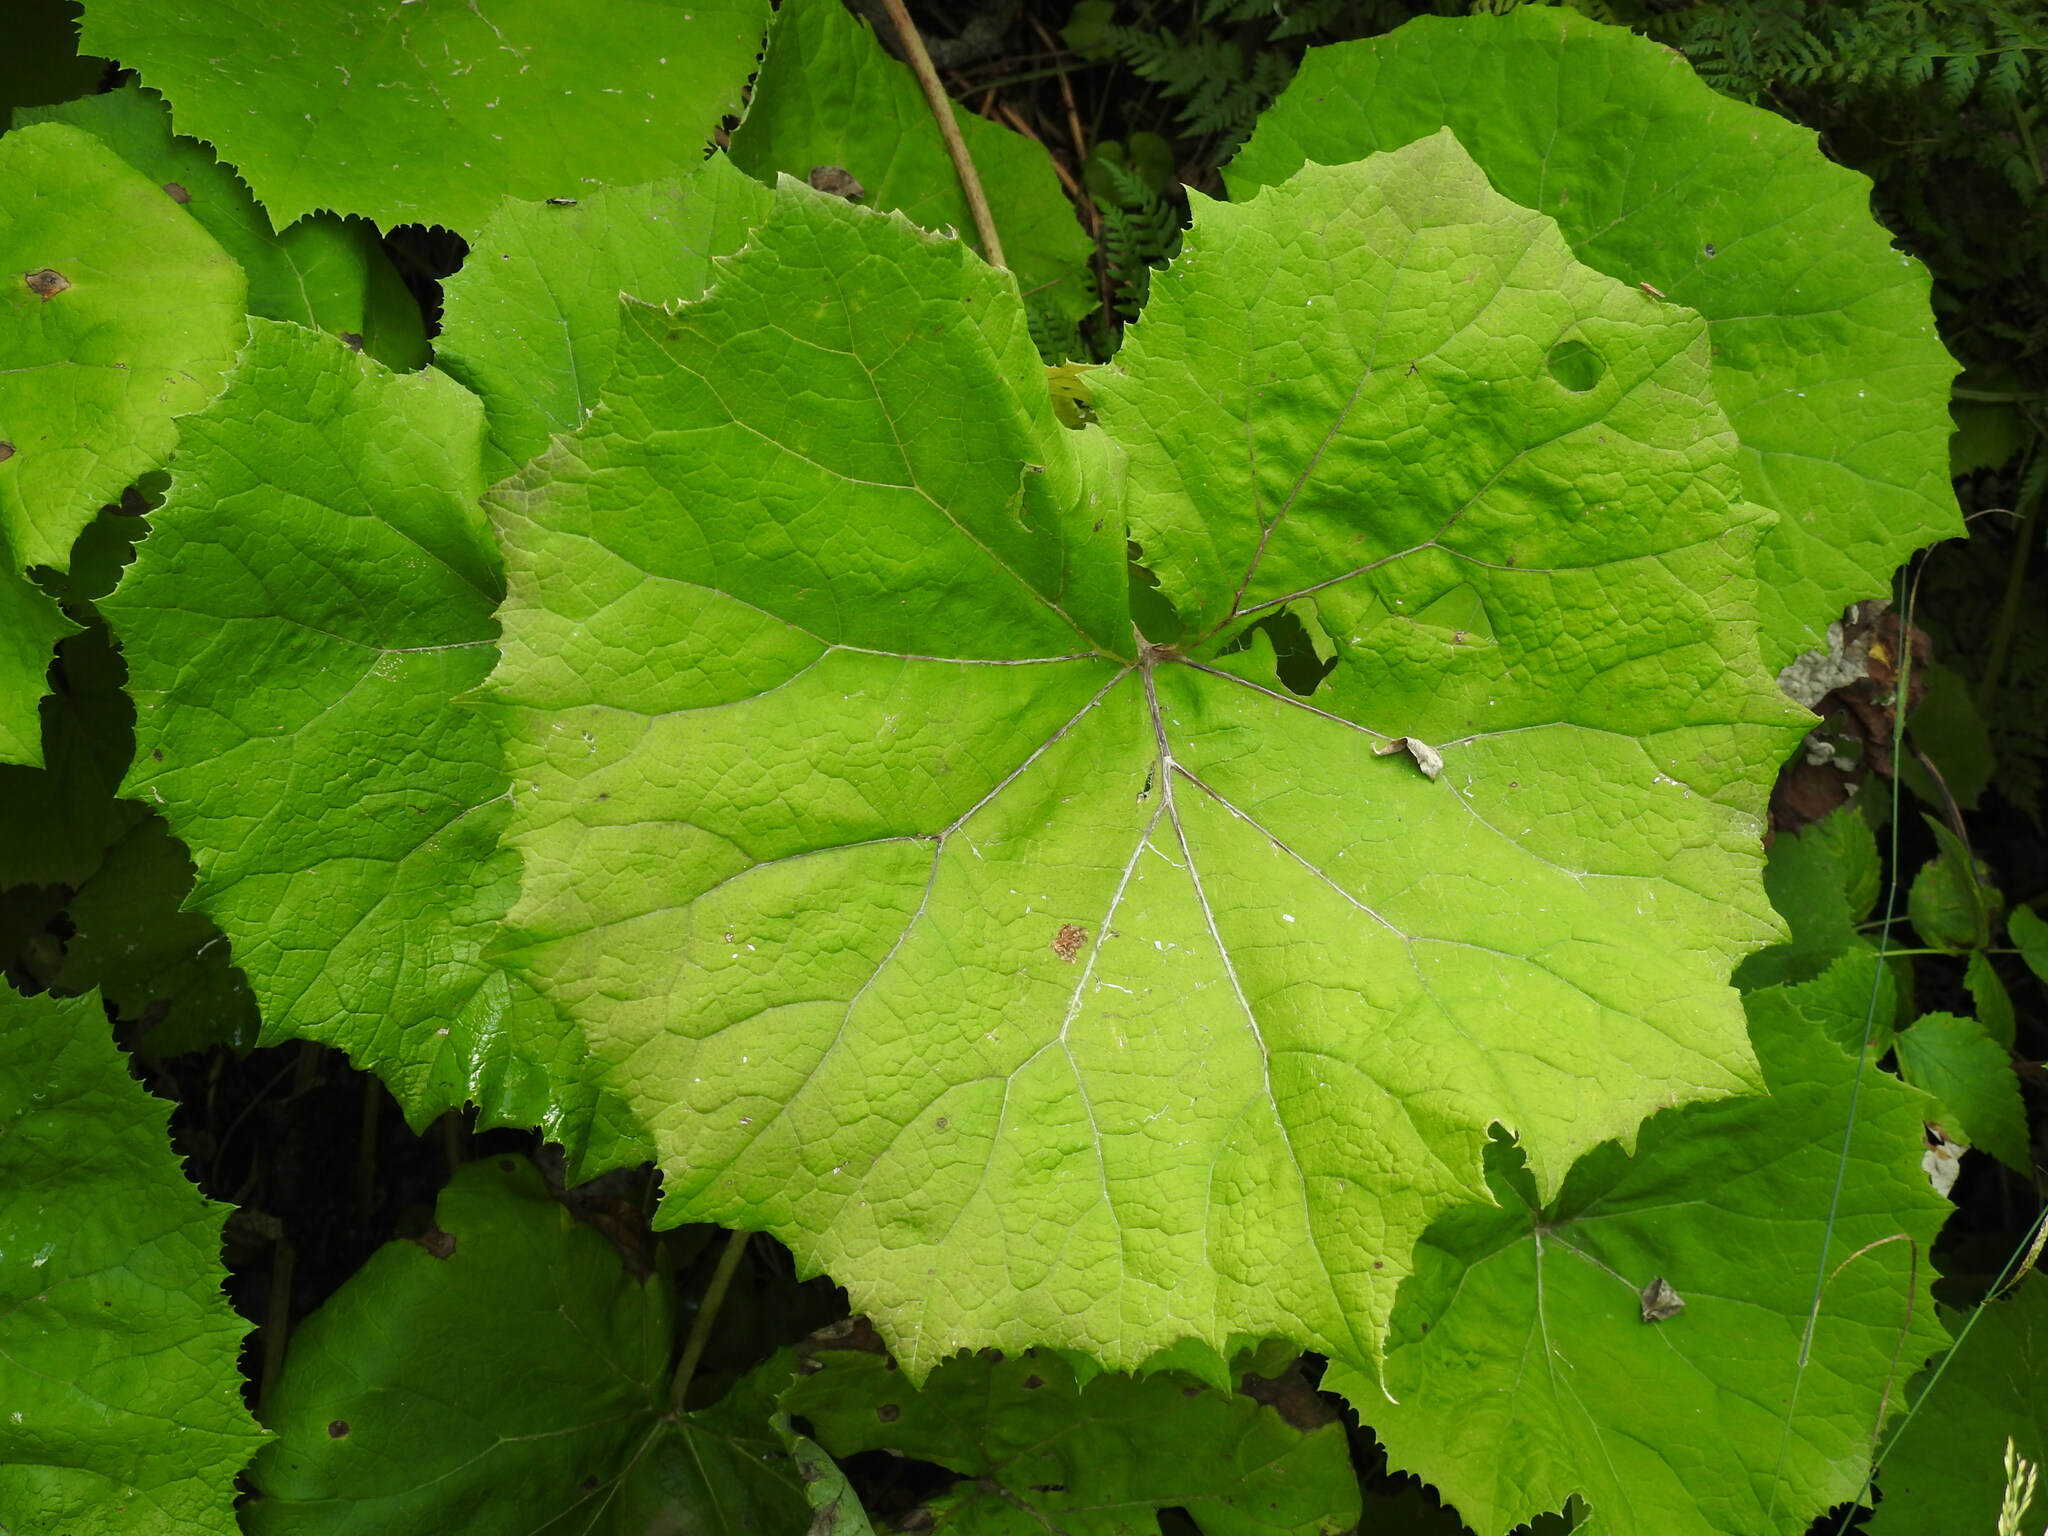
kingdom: Plantae
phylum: Tracheophyta
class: Magnoliopsida
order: Asterales
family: Asteraceae
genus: Adenostyles
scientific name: Adenostyles alliariae
